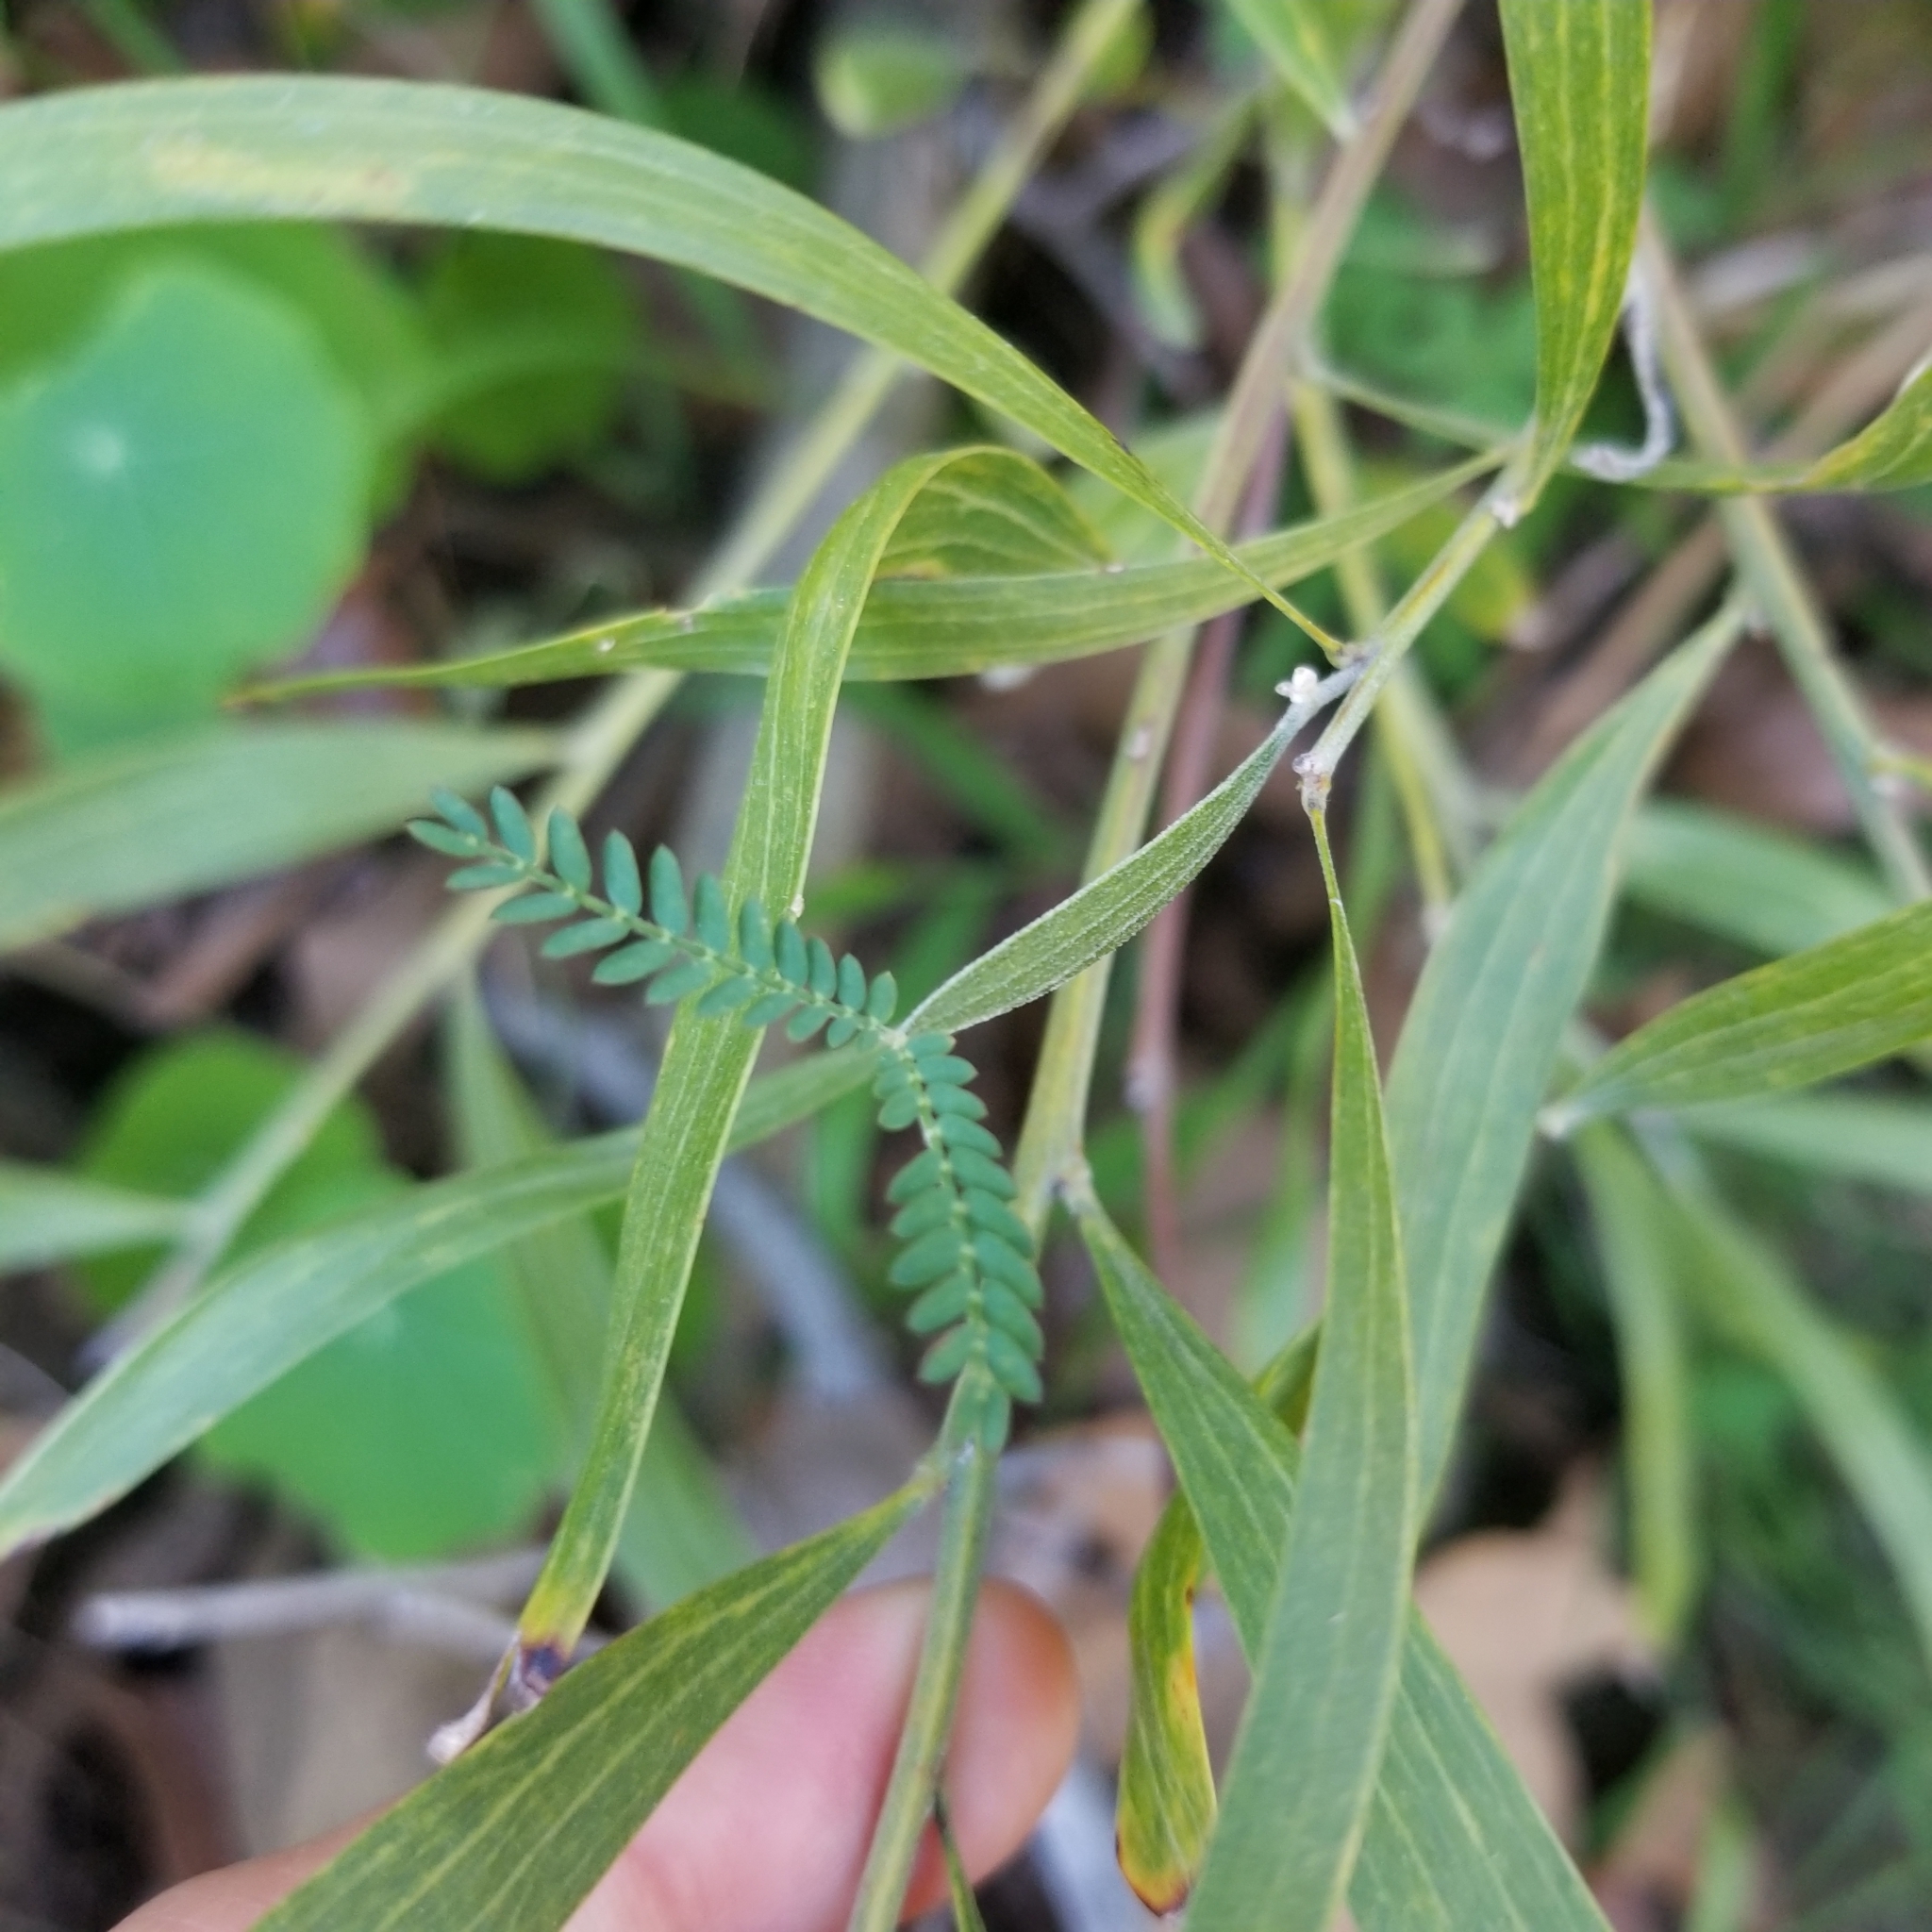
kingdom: Plantae
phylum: Tracheophyta
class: Magnoliopsida
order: Fabales
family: Fabaceae
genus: Acacia
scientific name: Acacia melanoxylon
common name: Blackwood
